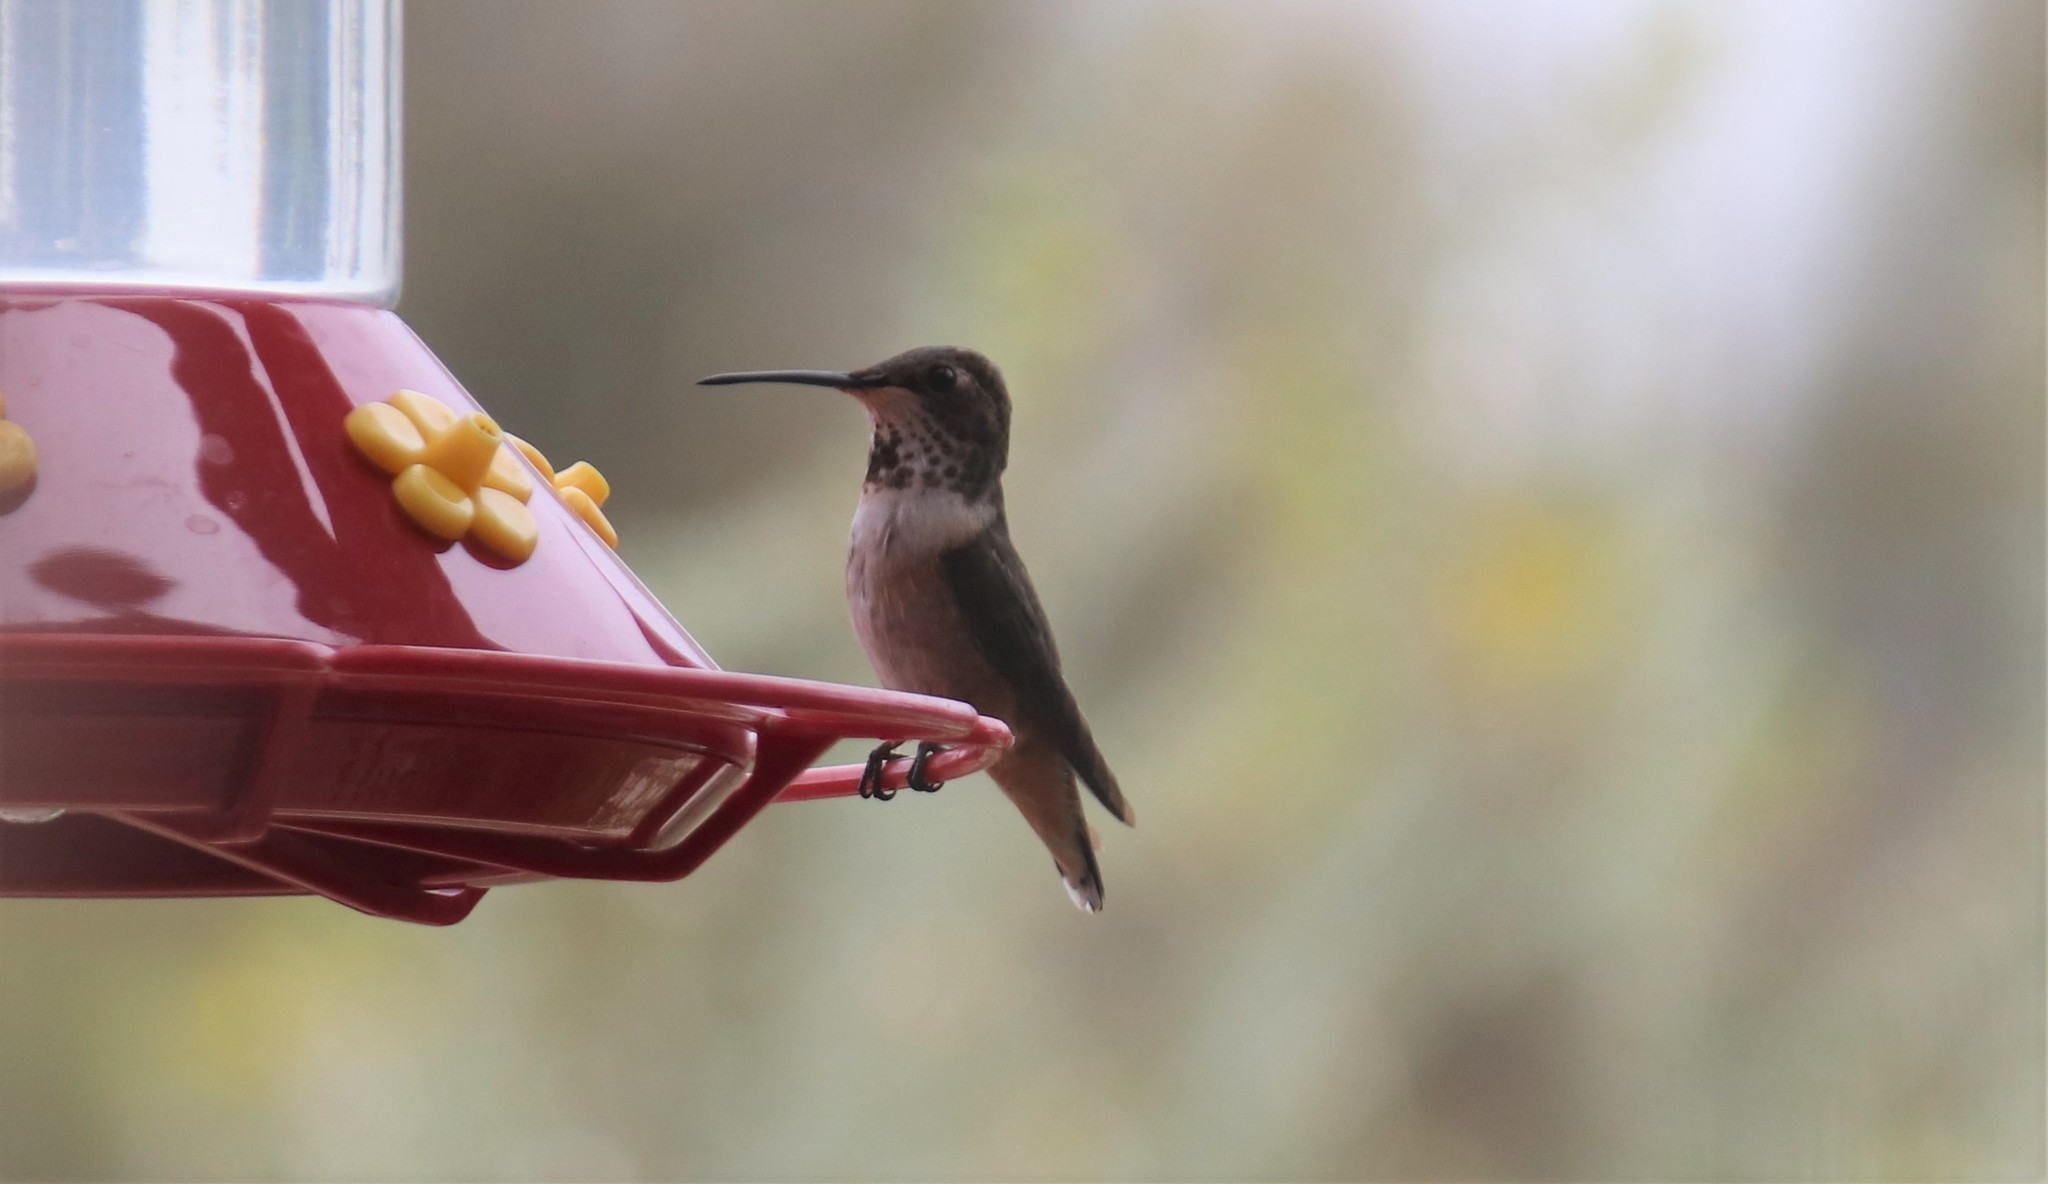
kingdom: Animalia
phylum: Chordata
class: Aves
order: Apodiformes
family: Trochilidae
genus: Selasphorus
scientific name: Selasphorus
